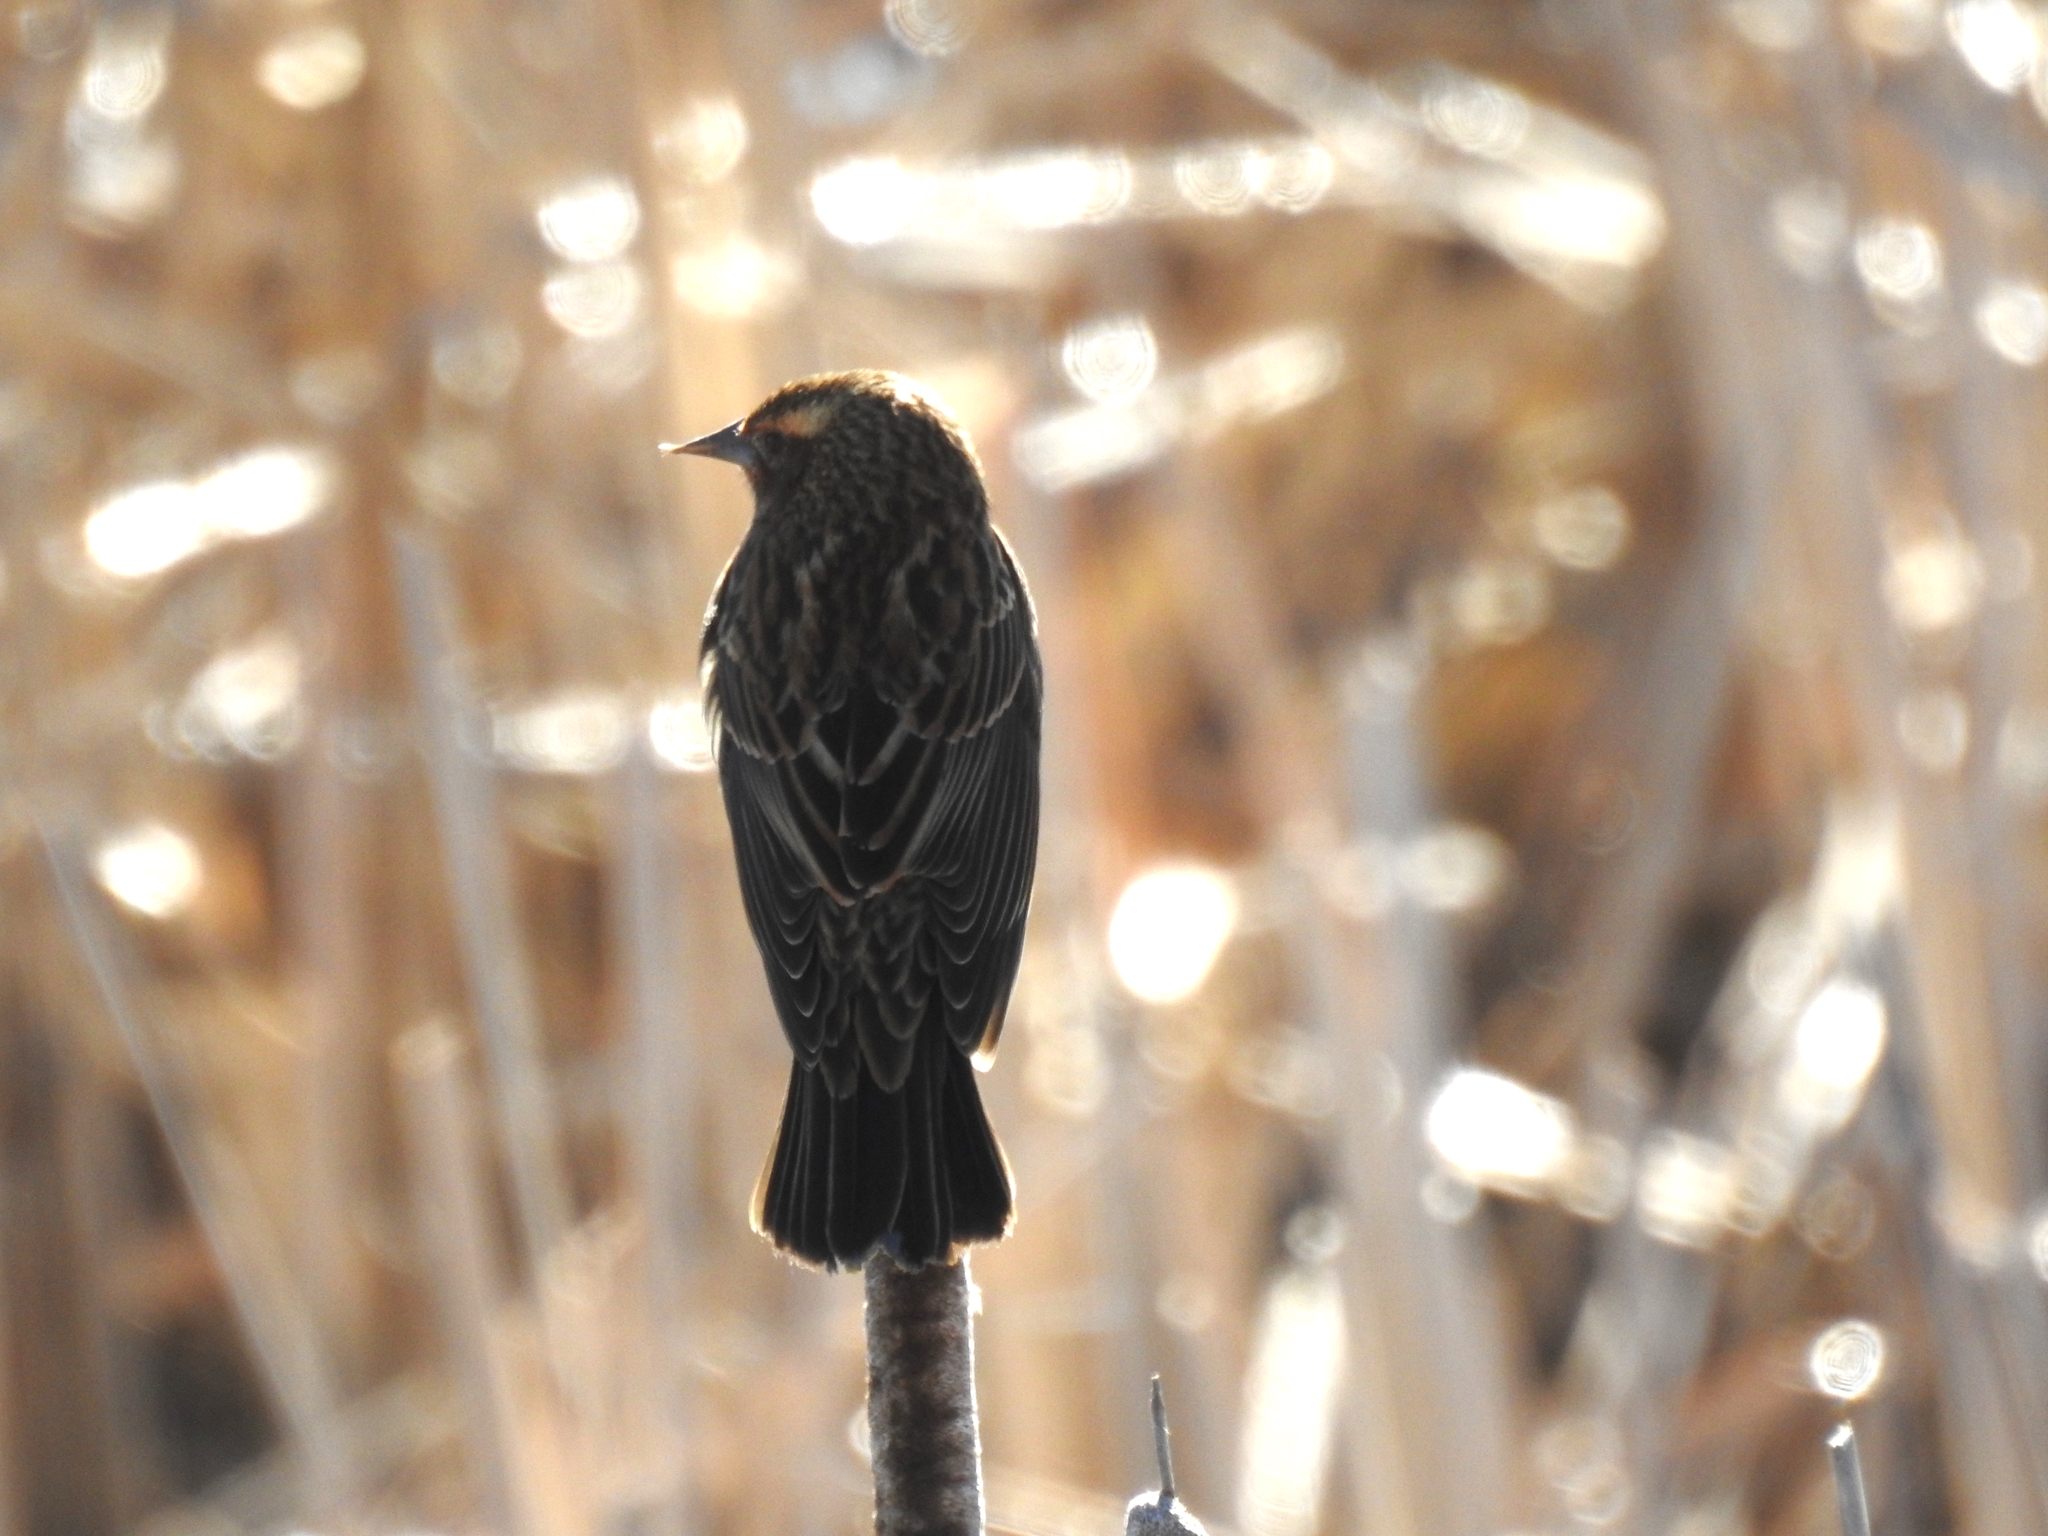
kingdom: Animalia
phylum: Chordata
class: Aves
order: Passeriformes
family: Icteridae
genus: Agelaius
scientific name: Agelaius phoeniceus
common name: Red-winged blackbird
